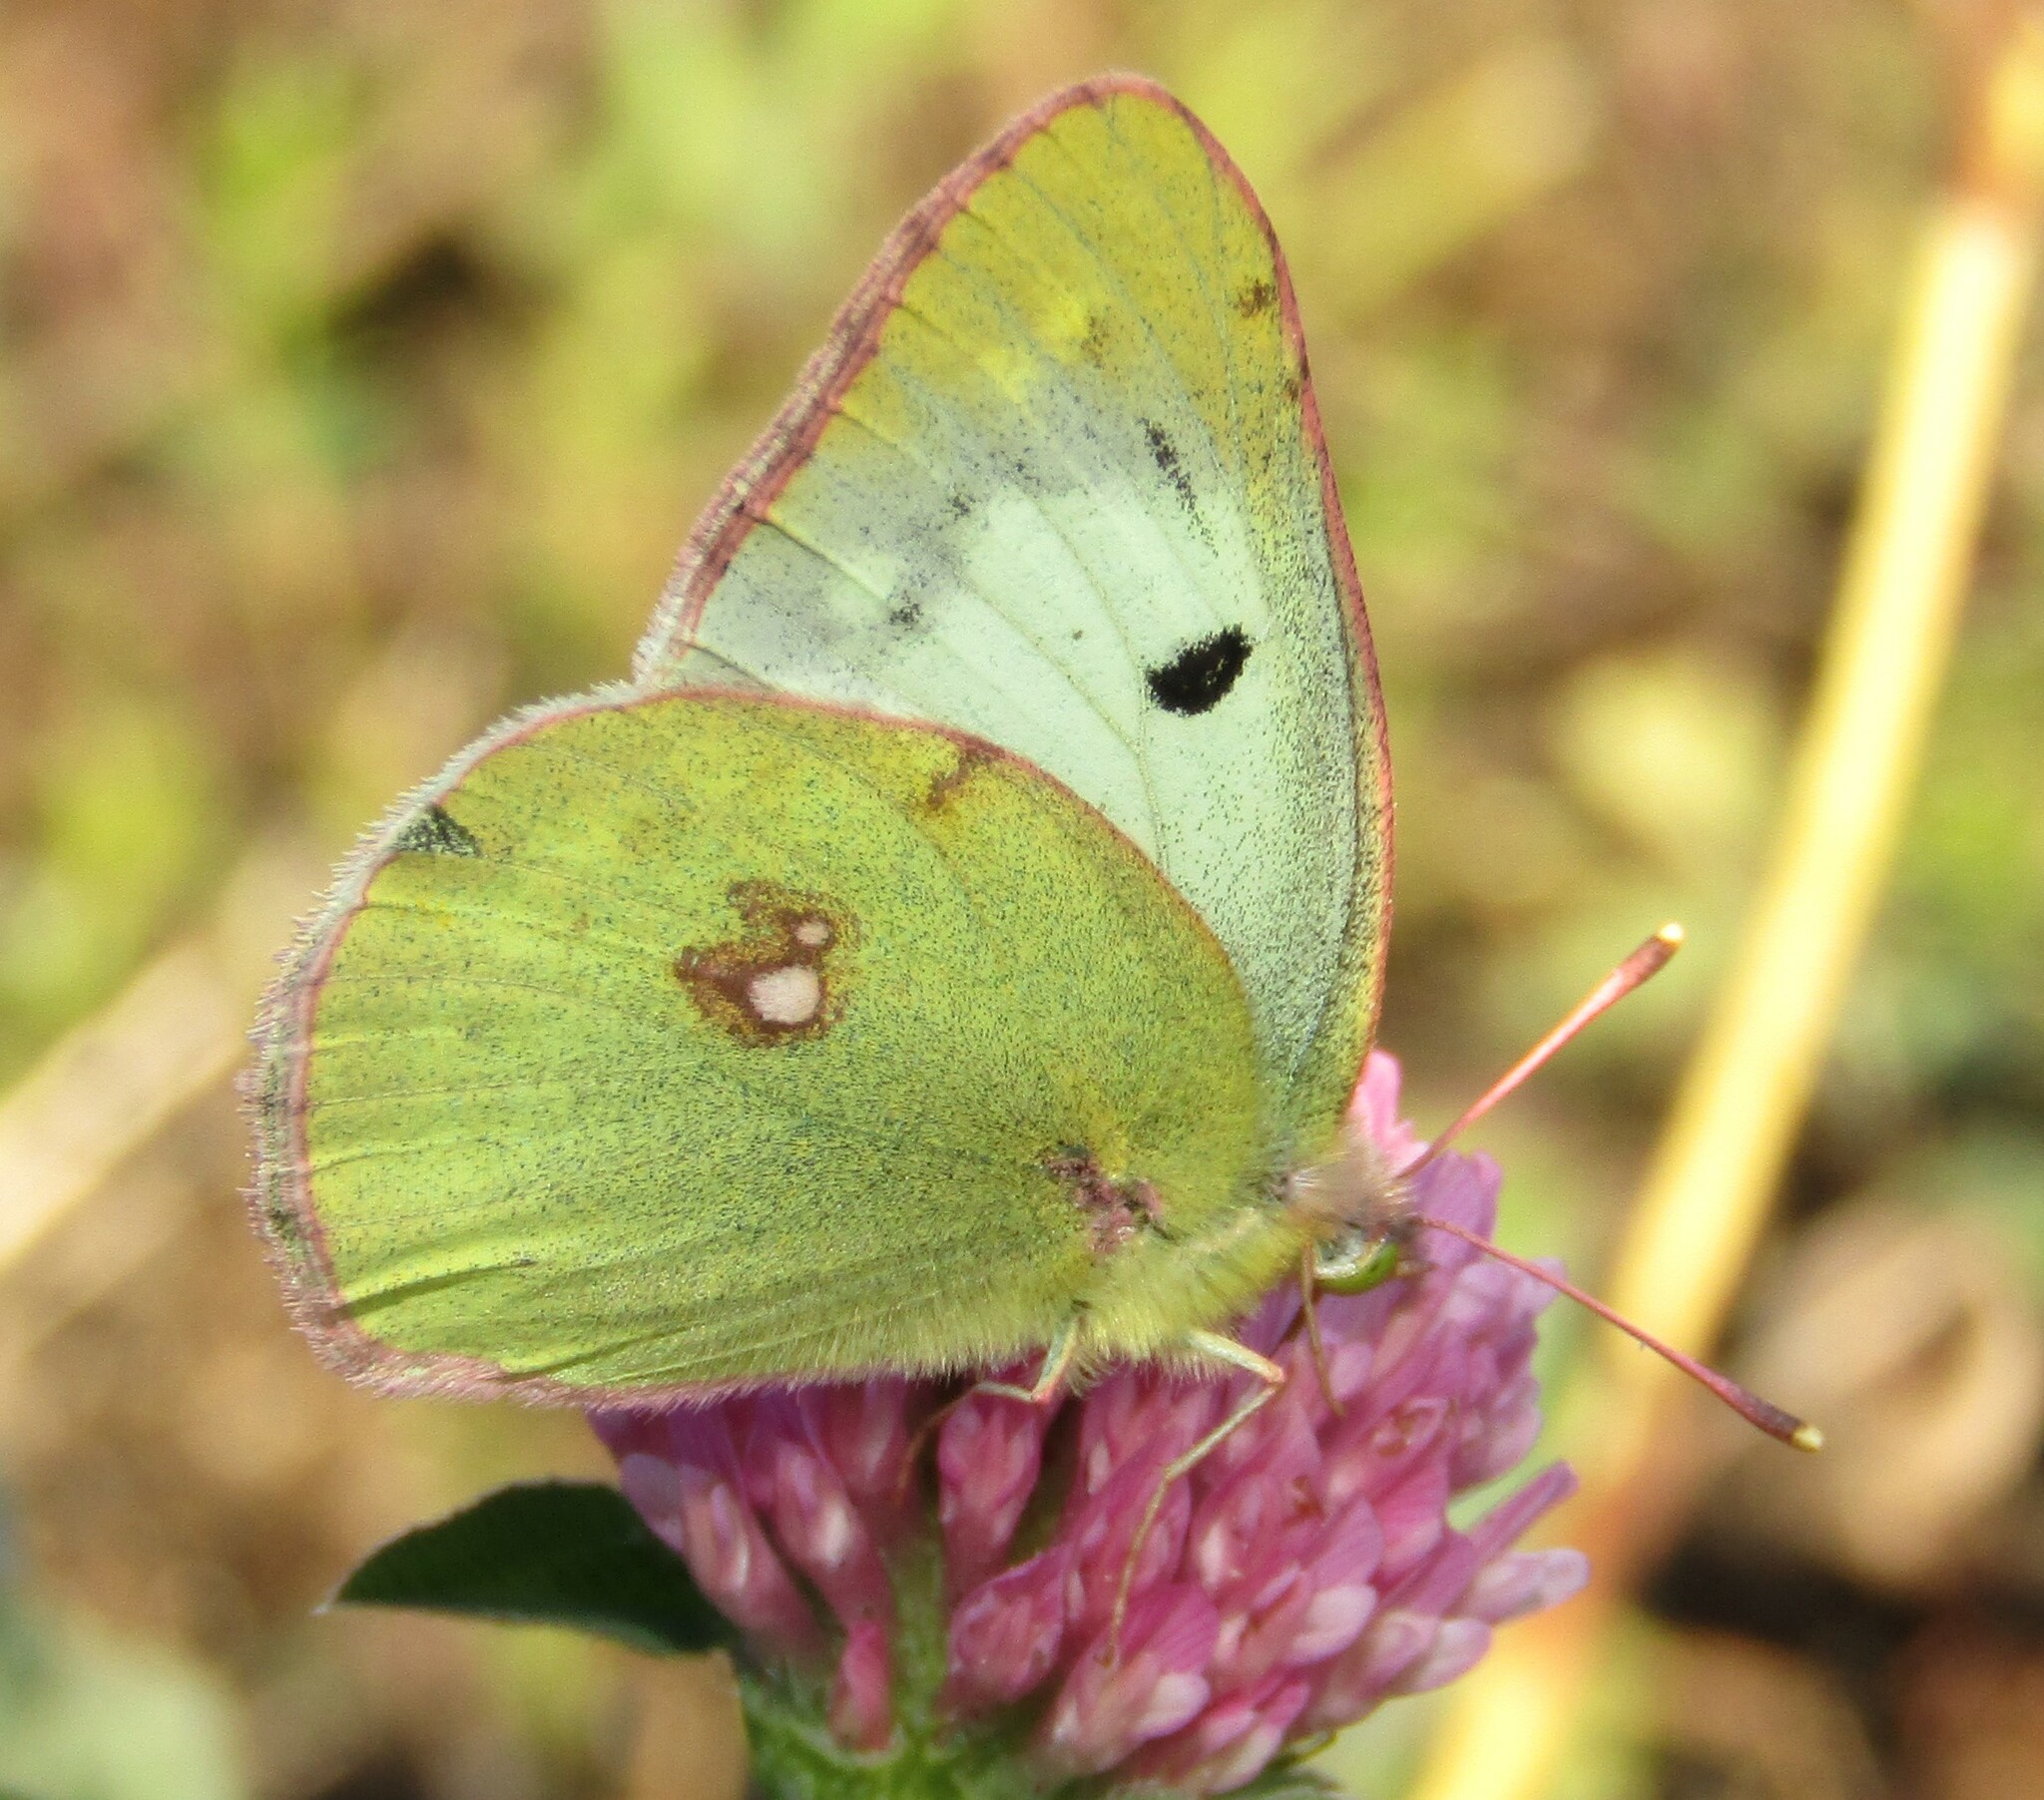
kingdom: Animalia
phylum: Arthropoda
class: Insecta
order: Lepidoptera
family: Pieridae
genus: Colias
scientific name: Colias hyale
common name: Pale clouded yellow
